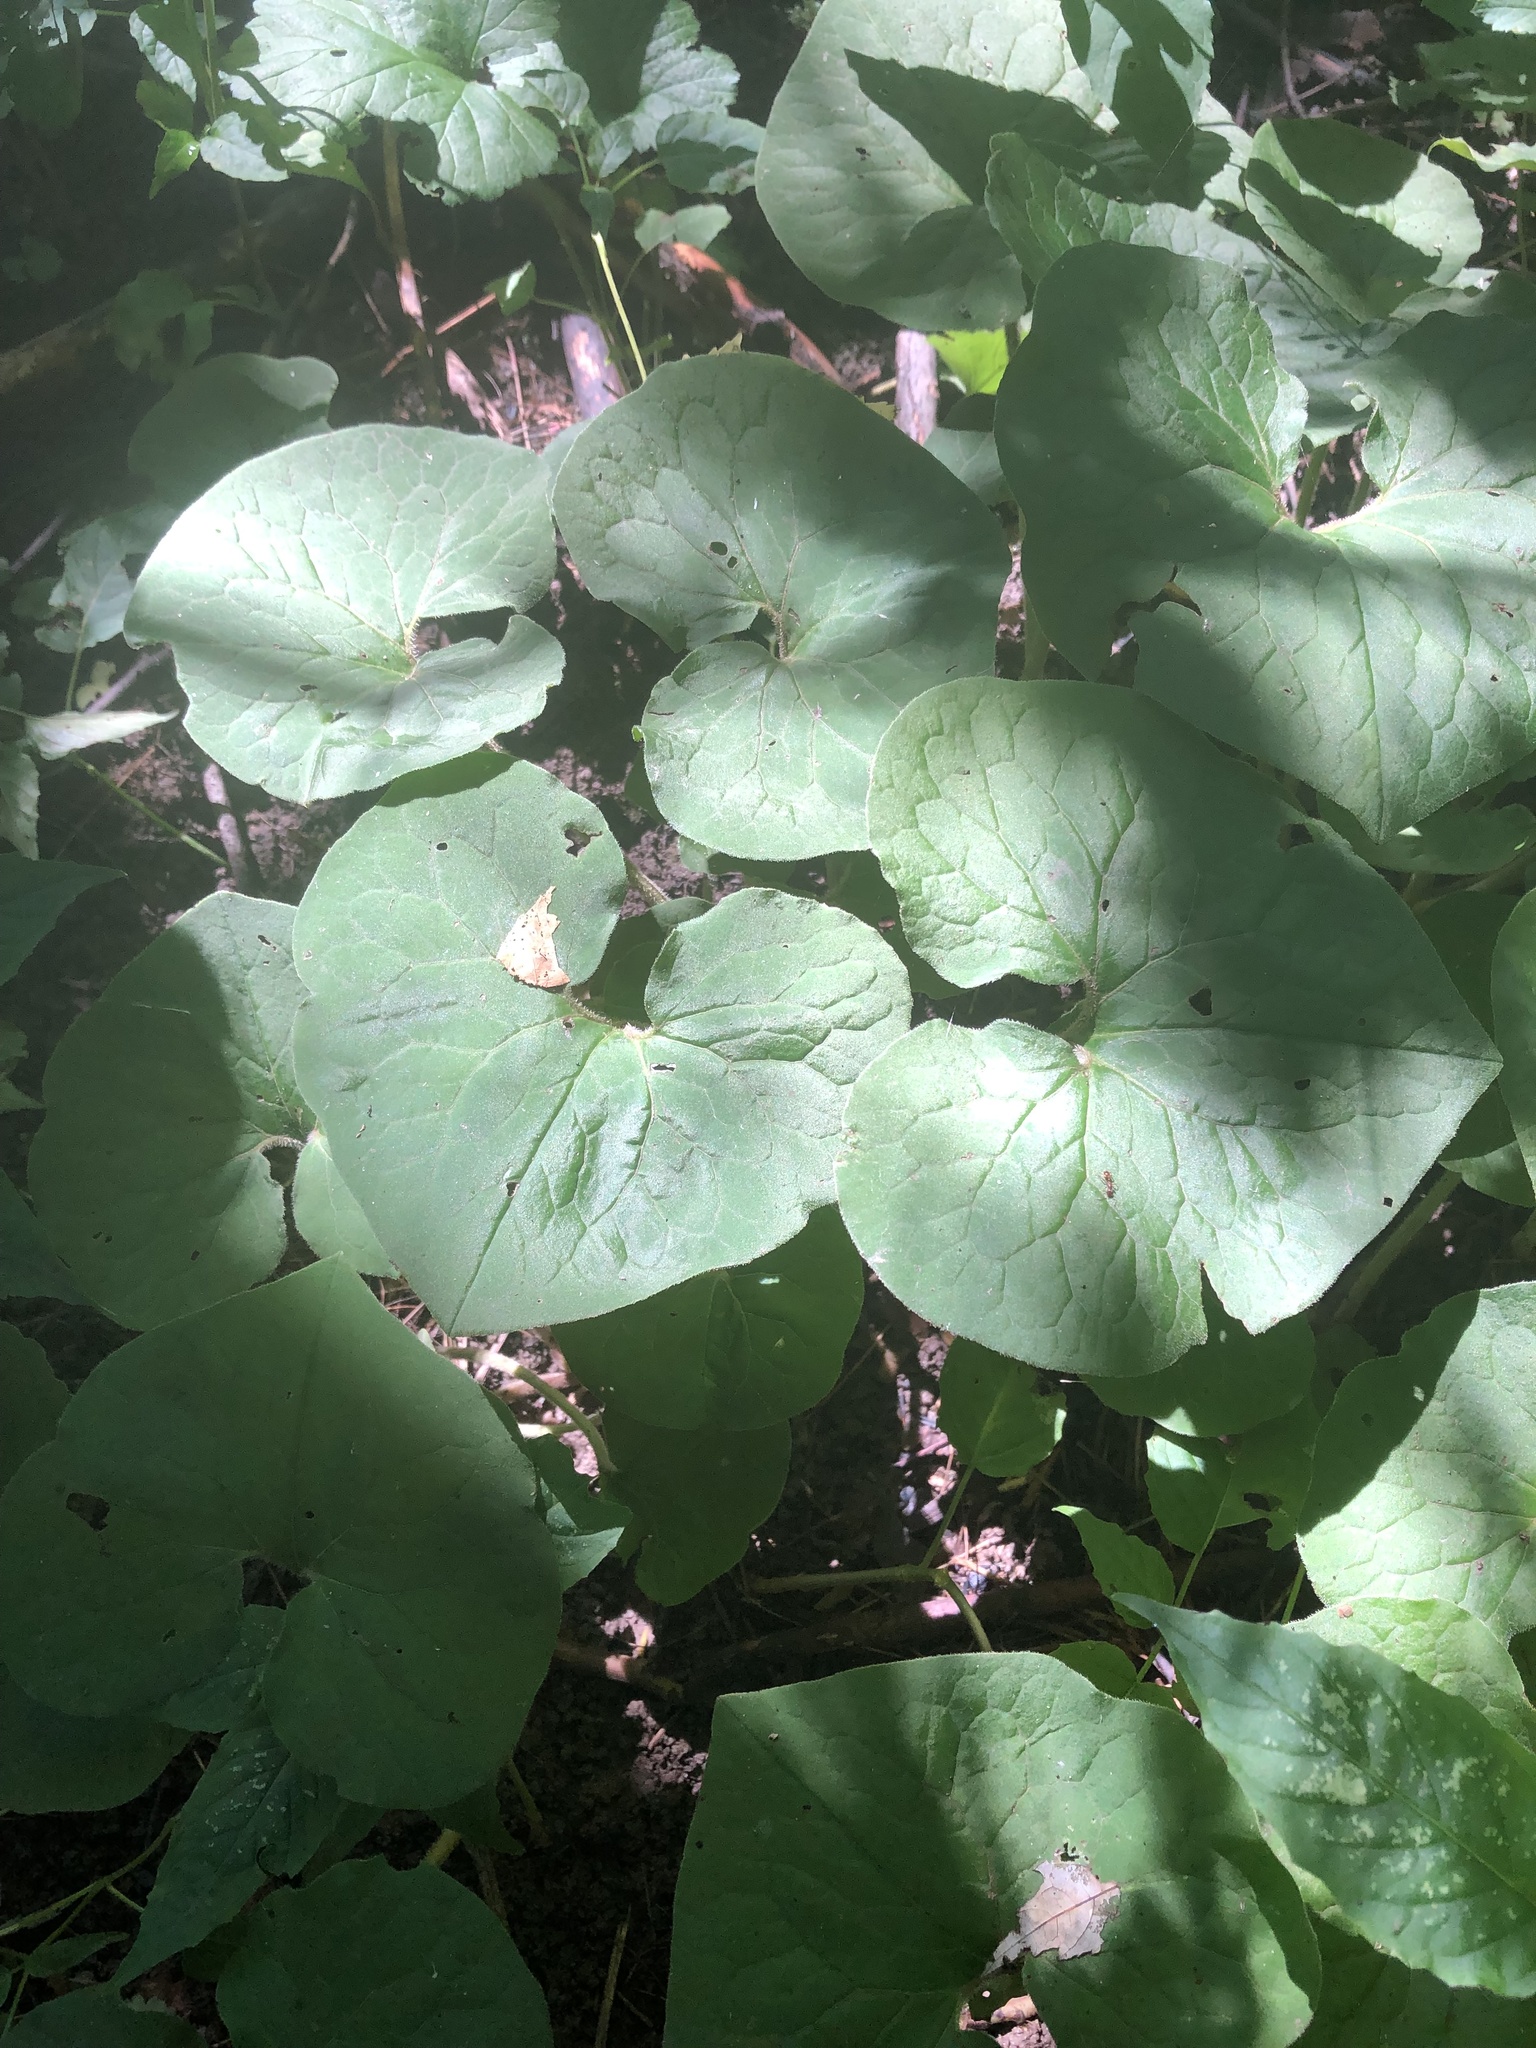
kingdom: Plantae
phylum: Tracheophyta
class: Magnoliopsida
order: Piperales
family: Aristolochiaceae
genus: Asarum
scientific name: Asarum canadense
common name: Wild ginger
